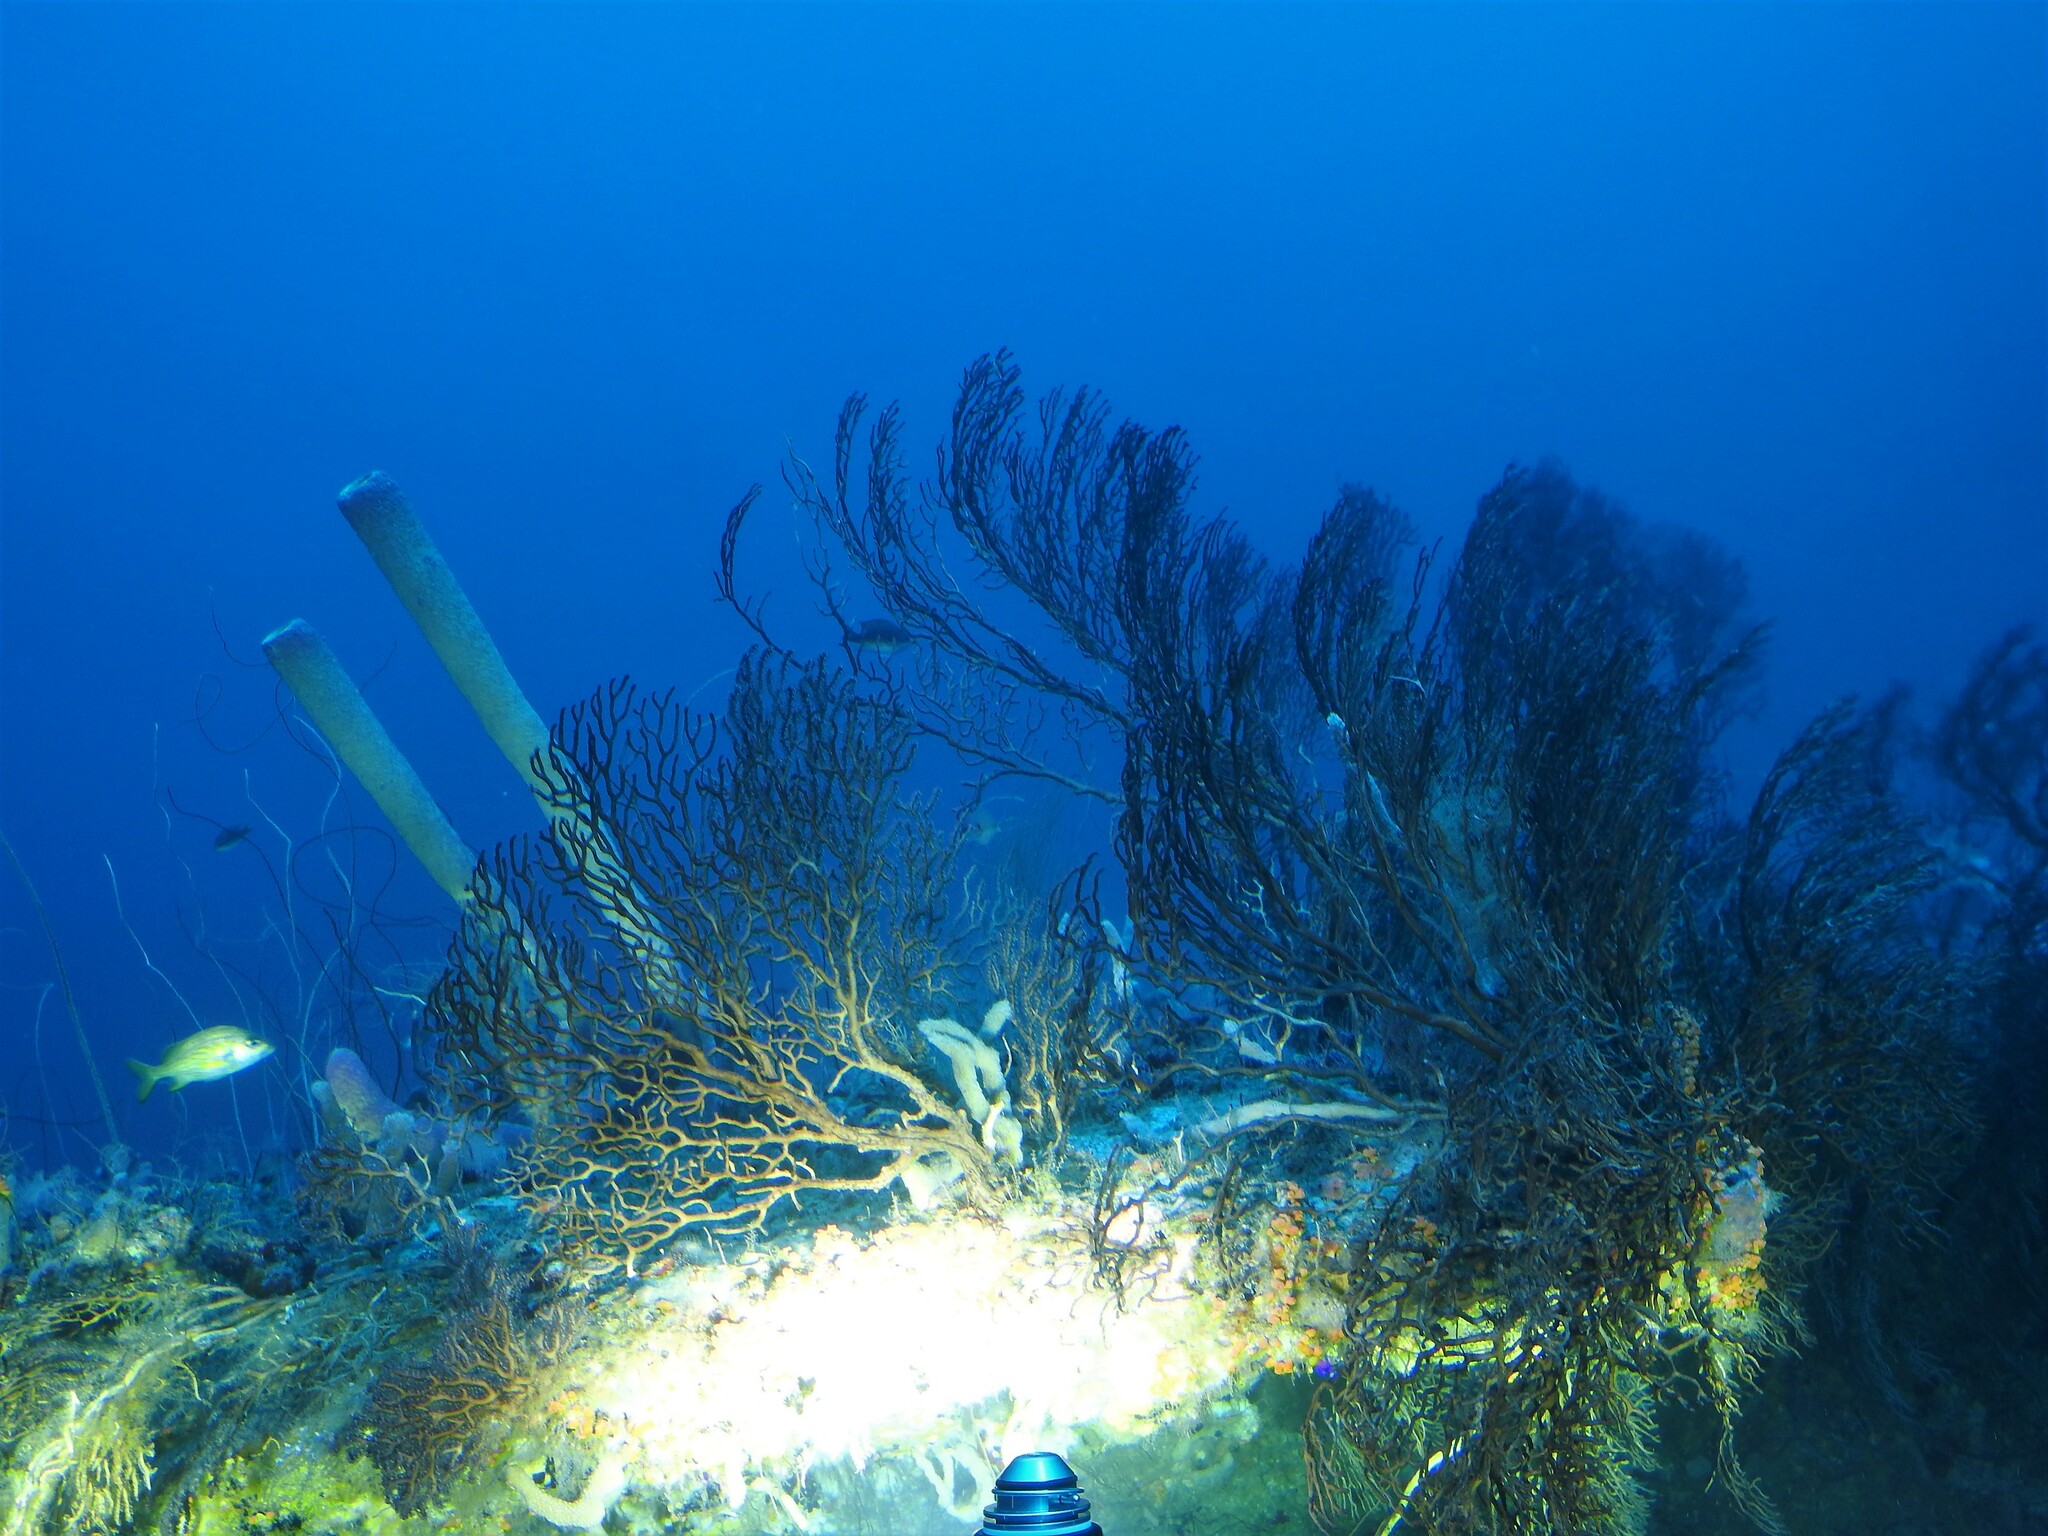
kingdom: Animalia
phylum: Cnidaria
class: Anthozoa
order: Malacalcyonacea
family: Melithaeidae
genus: Iciligorgia
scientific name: Iciligorgia schrammi
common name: Black sea fan
